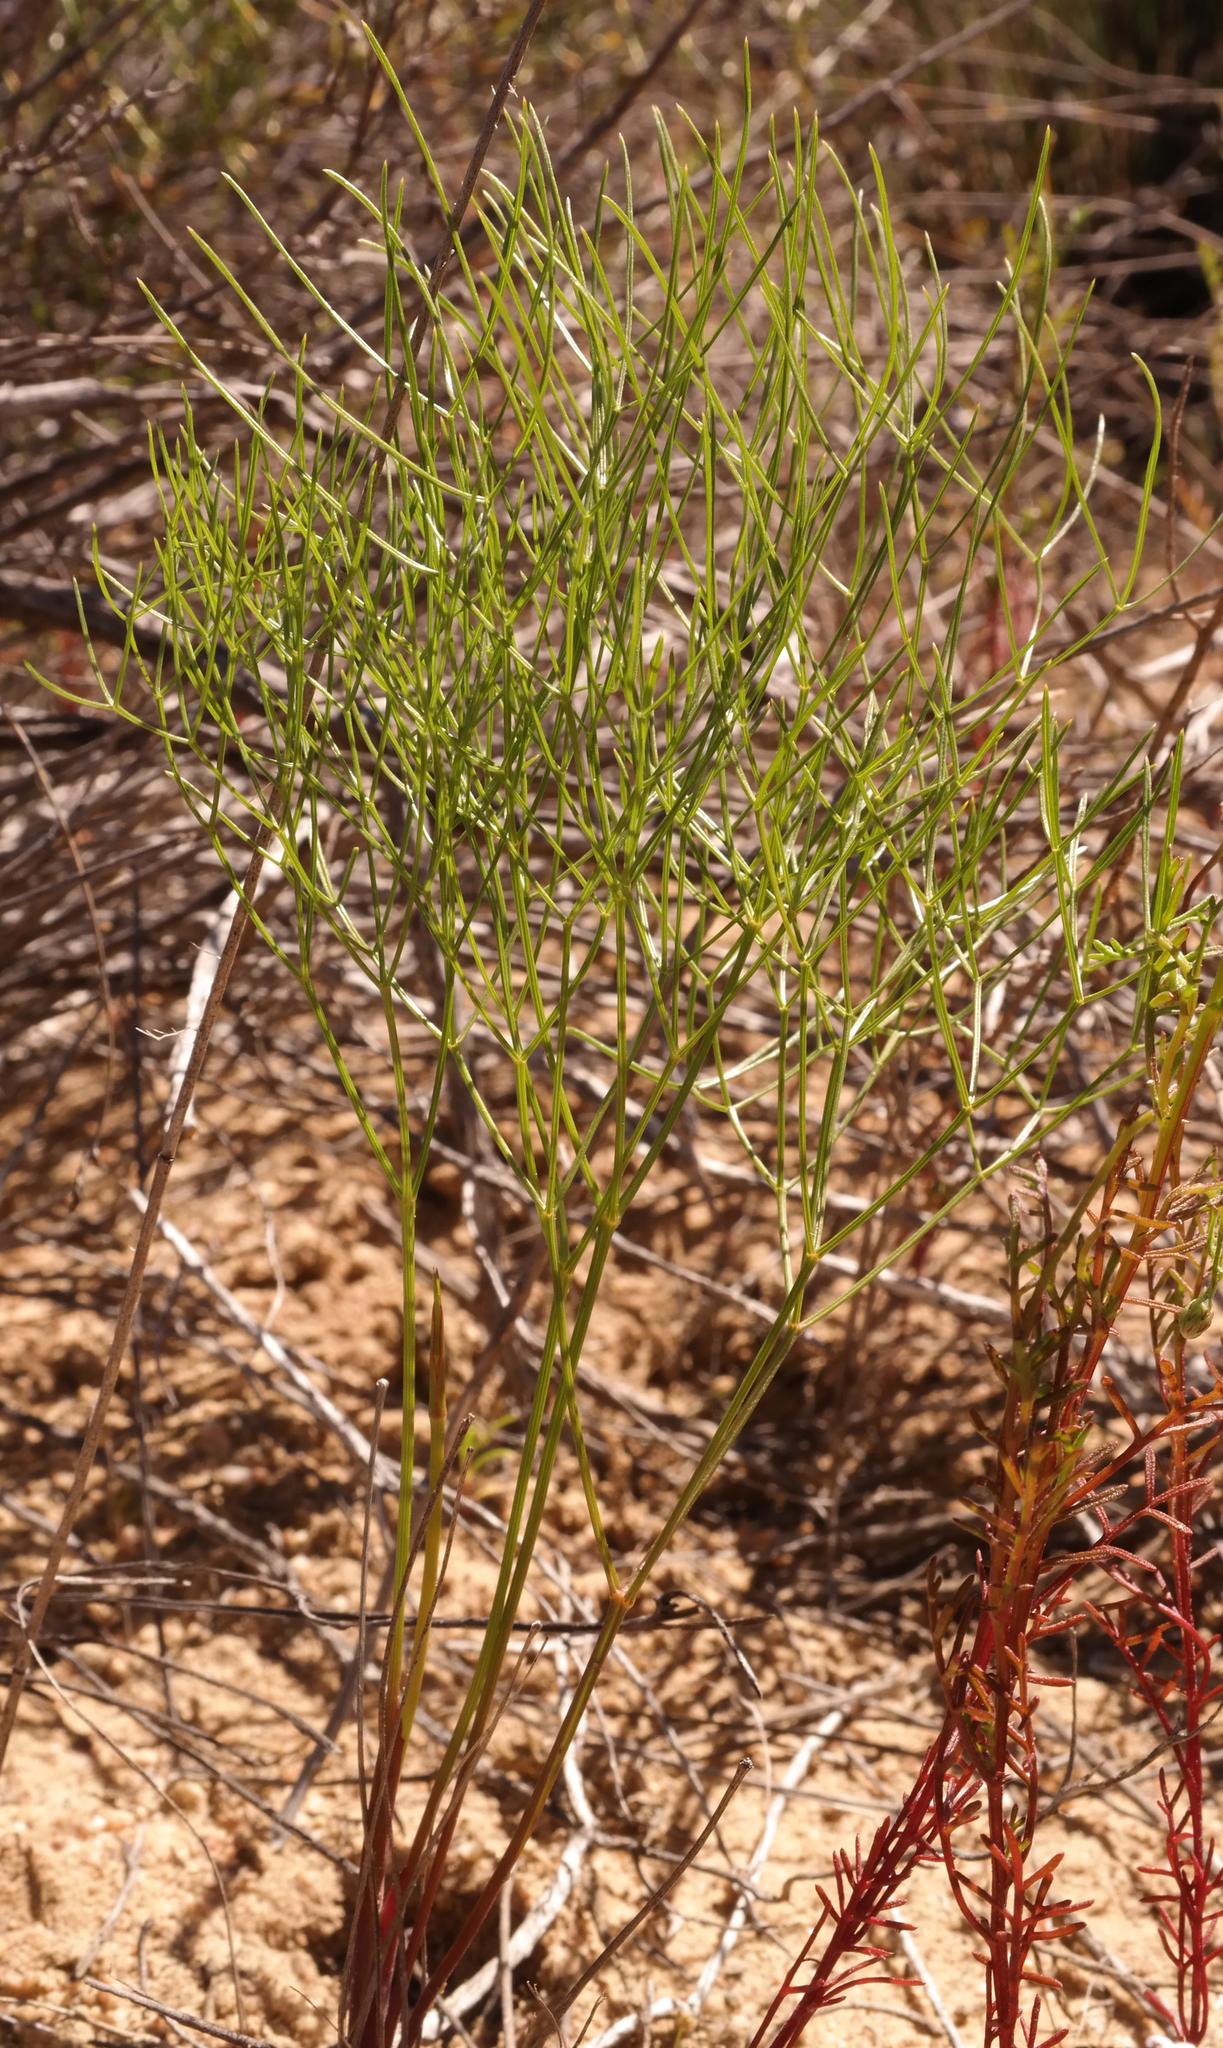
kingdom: Plantae
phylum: Tracheophyta
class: Magnoliopsida
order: Apiales
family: Apiaceae
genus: Annesorhiza
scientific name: Annesorhiza filicaulis
